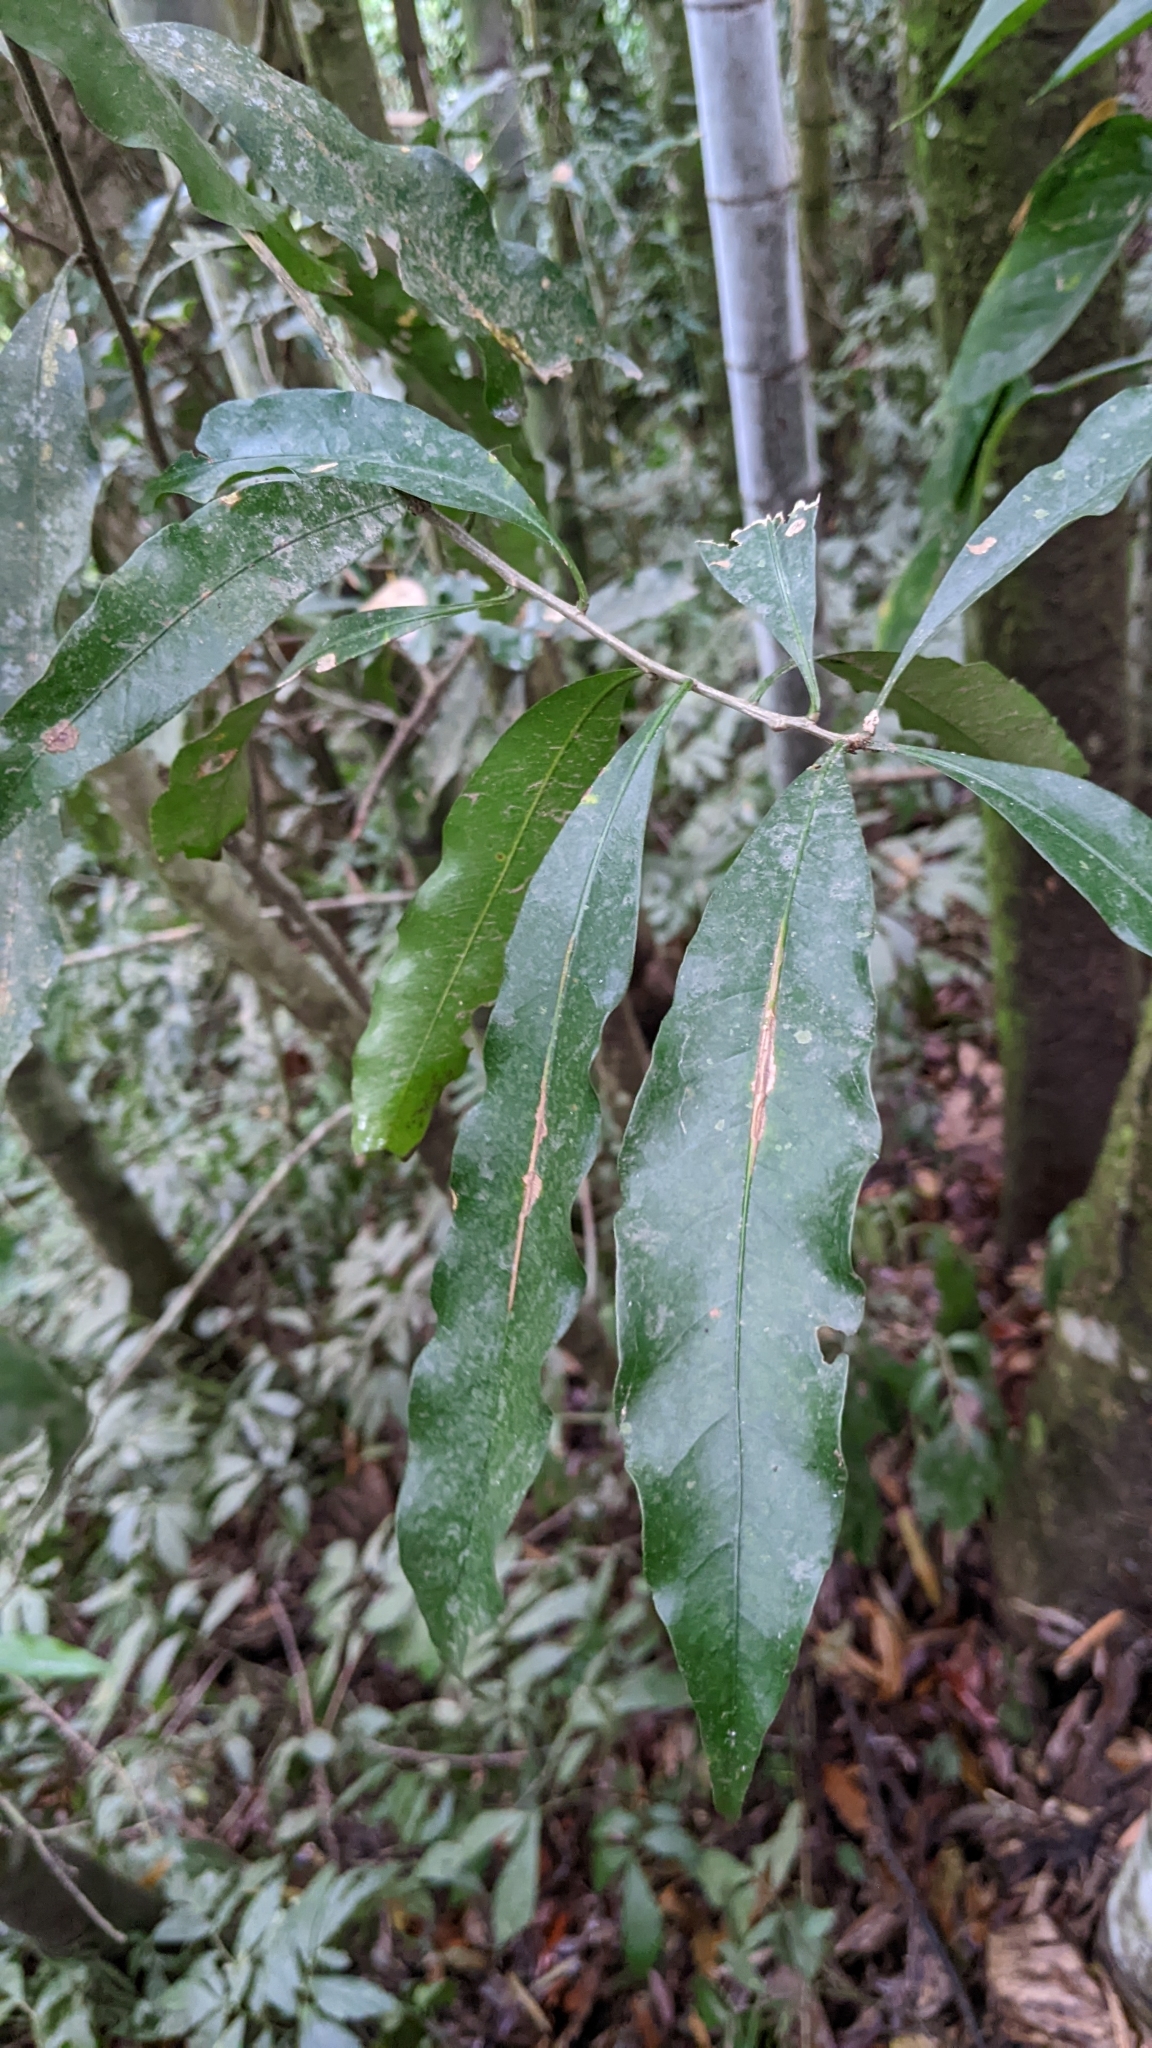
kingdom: Plantae
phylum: Tracheophyta
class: Magnoliopsida
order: Fagales
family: Fagaceae
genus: Lithocarpus
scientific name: Lithocarpus hancei
